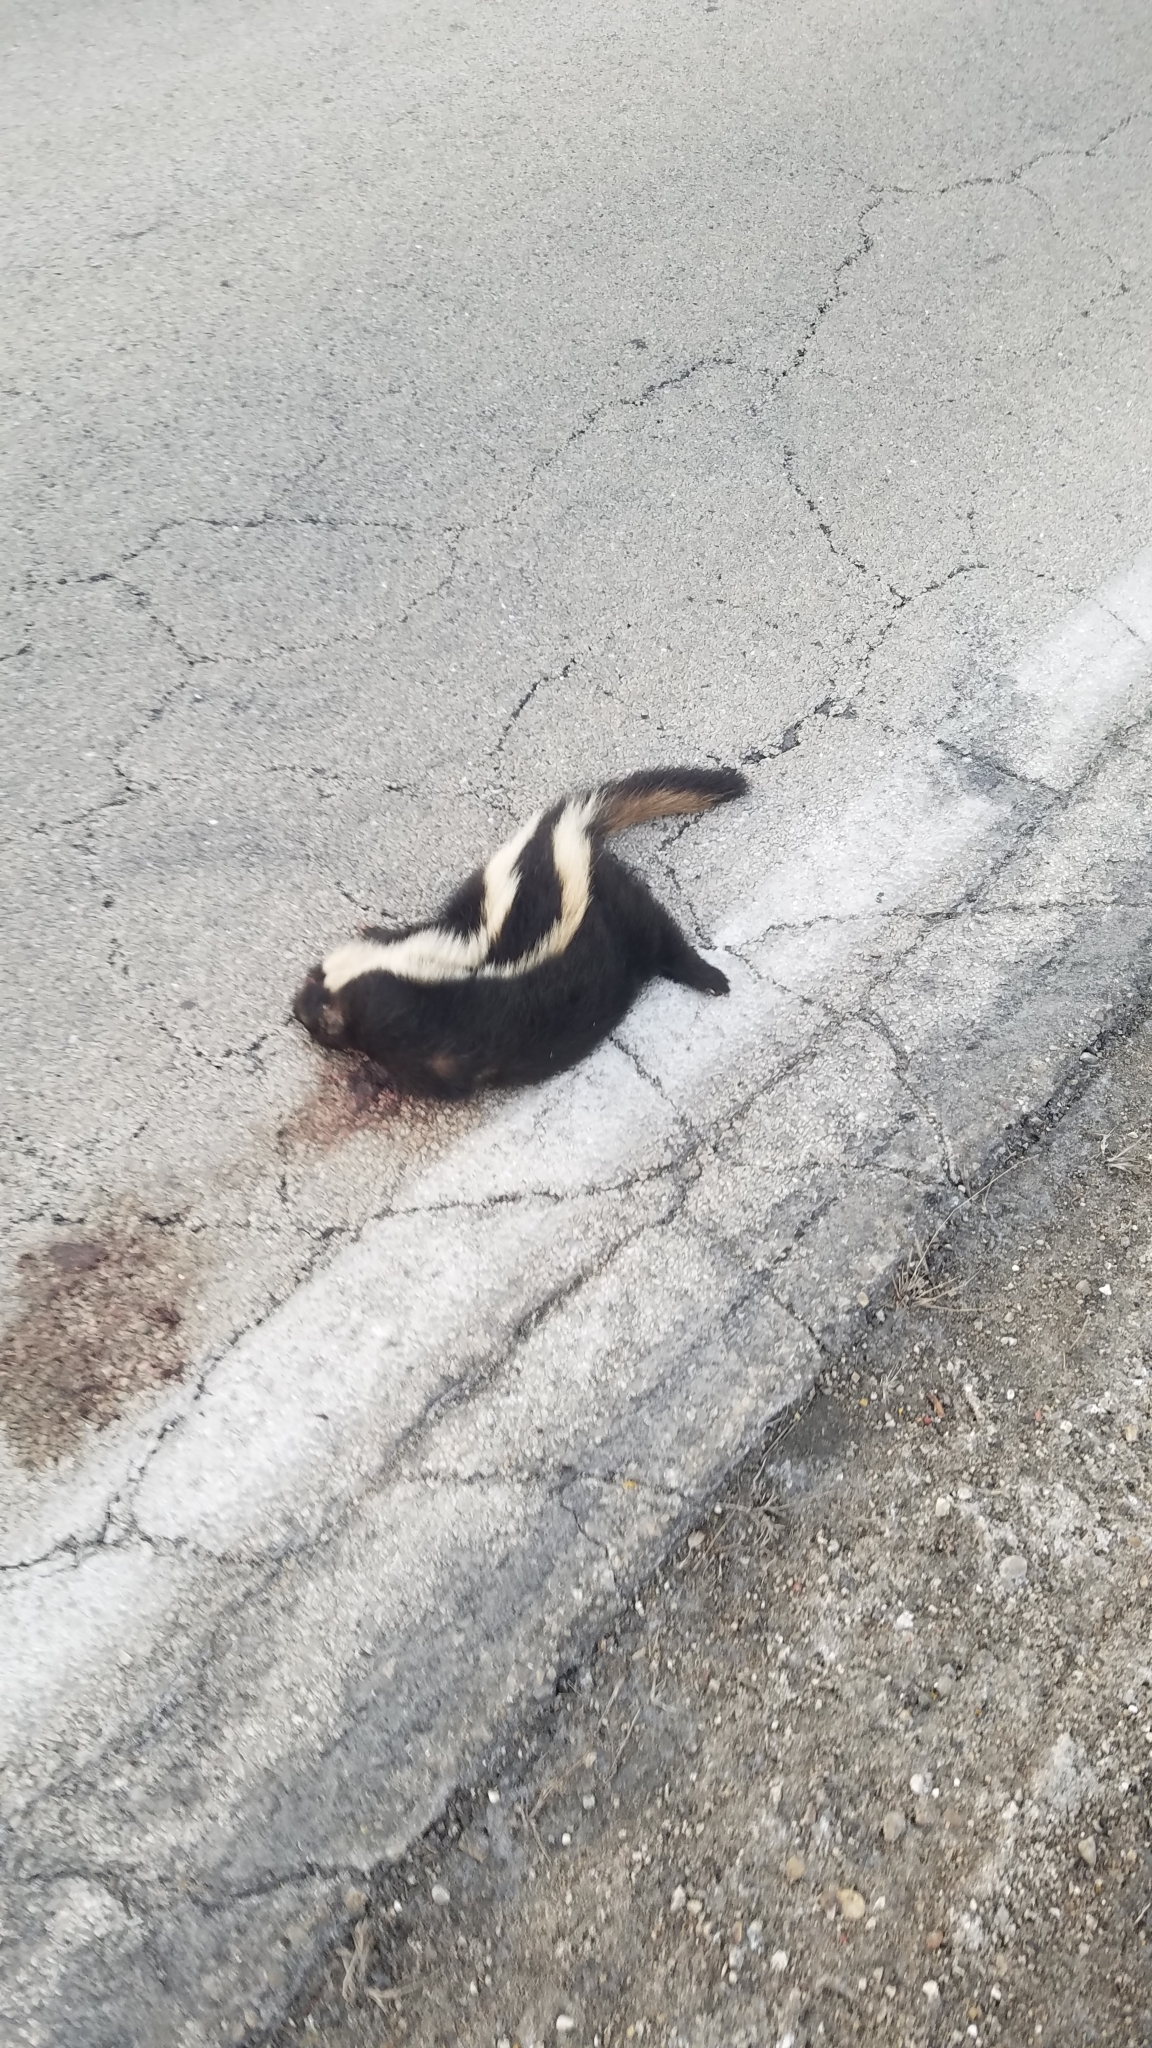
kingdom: Animalia
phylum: Chordata
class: Mammalia
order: Carnivora
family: Mephitidae
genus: Mephitis
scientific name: Mephitis mephitis
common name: Striped skunk
